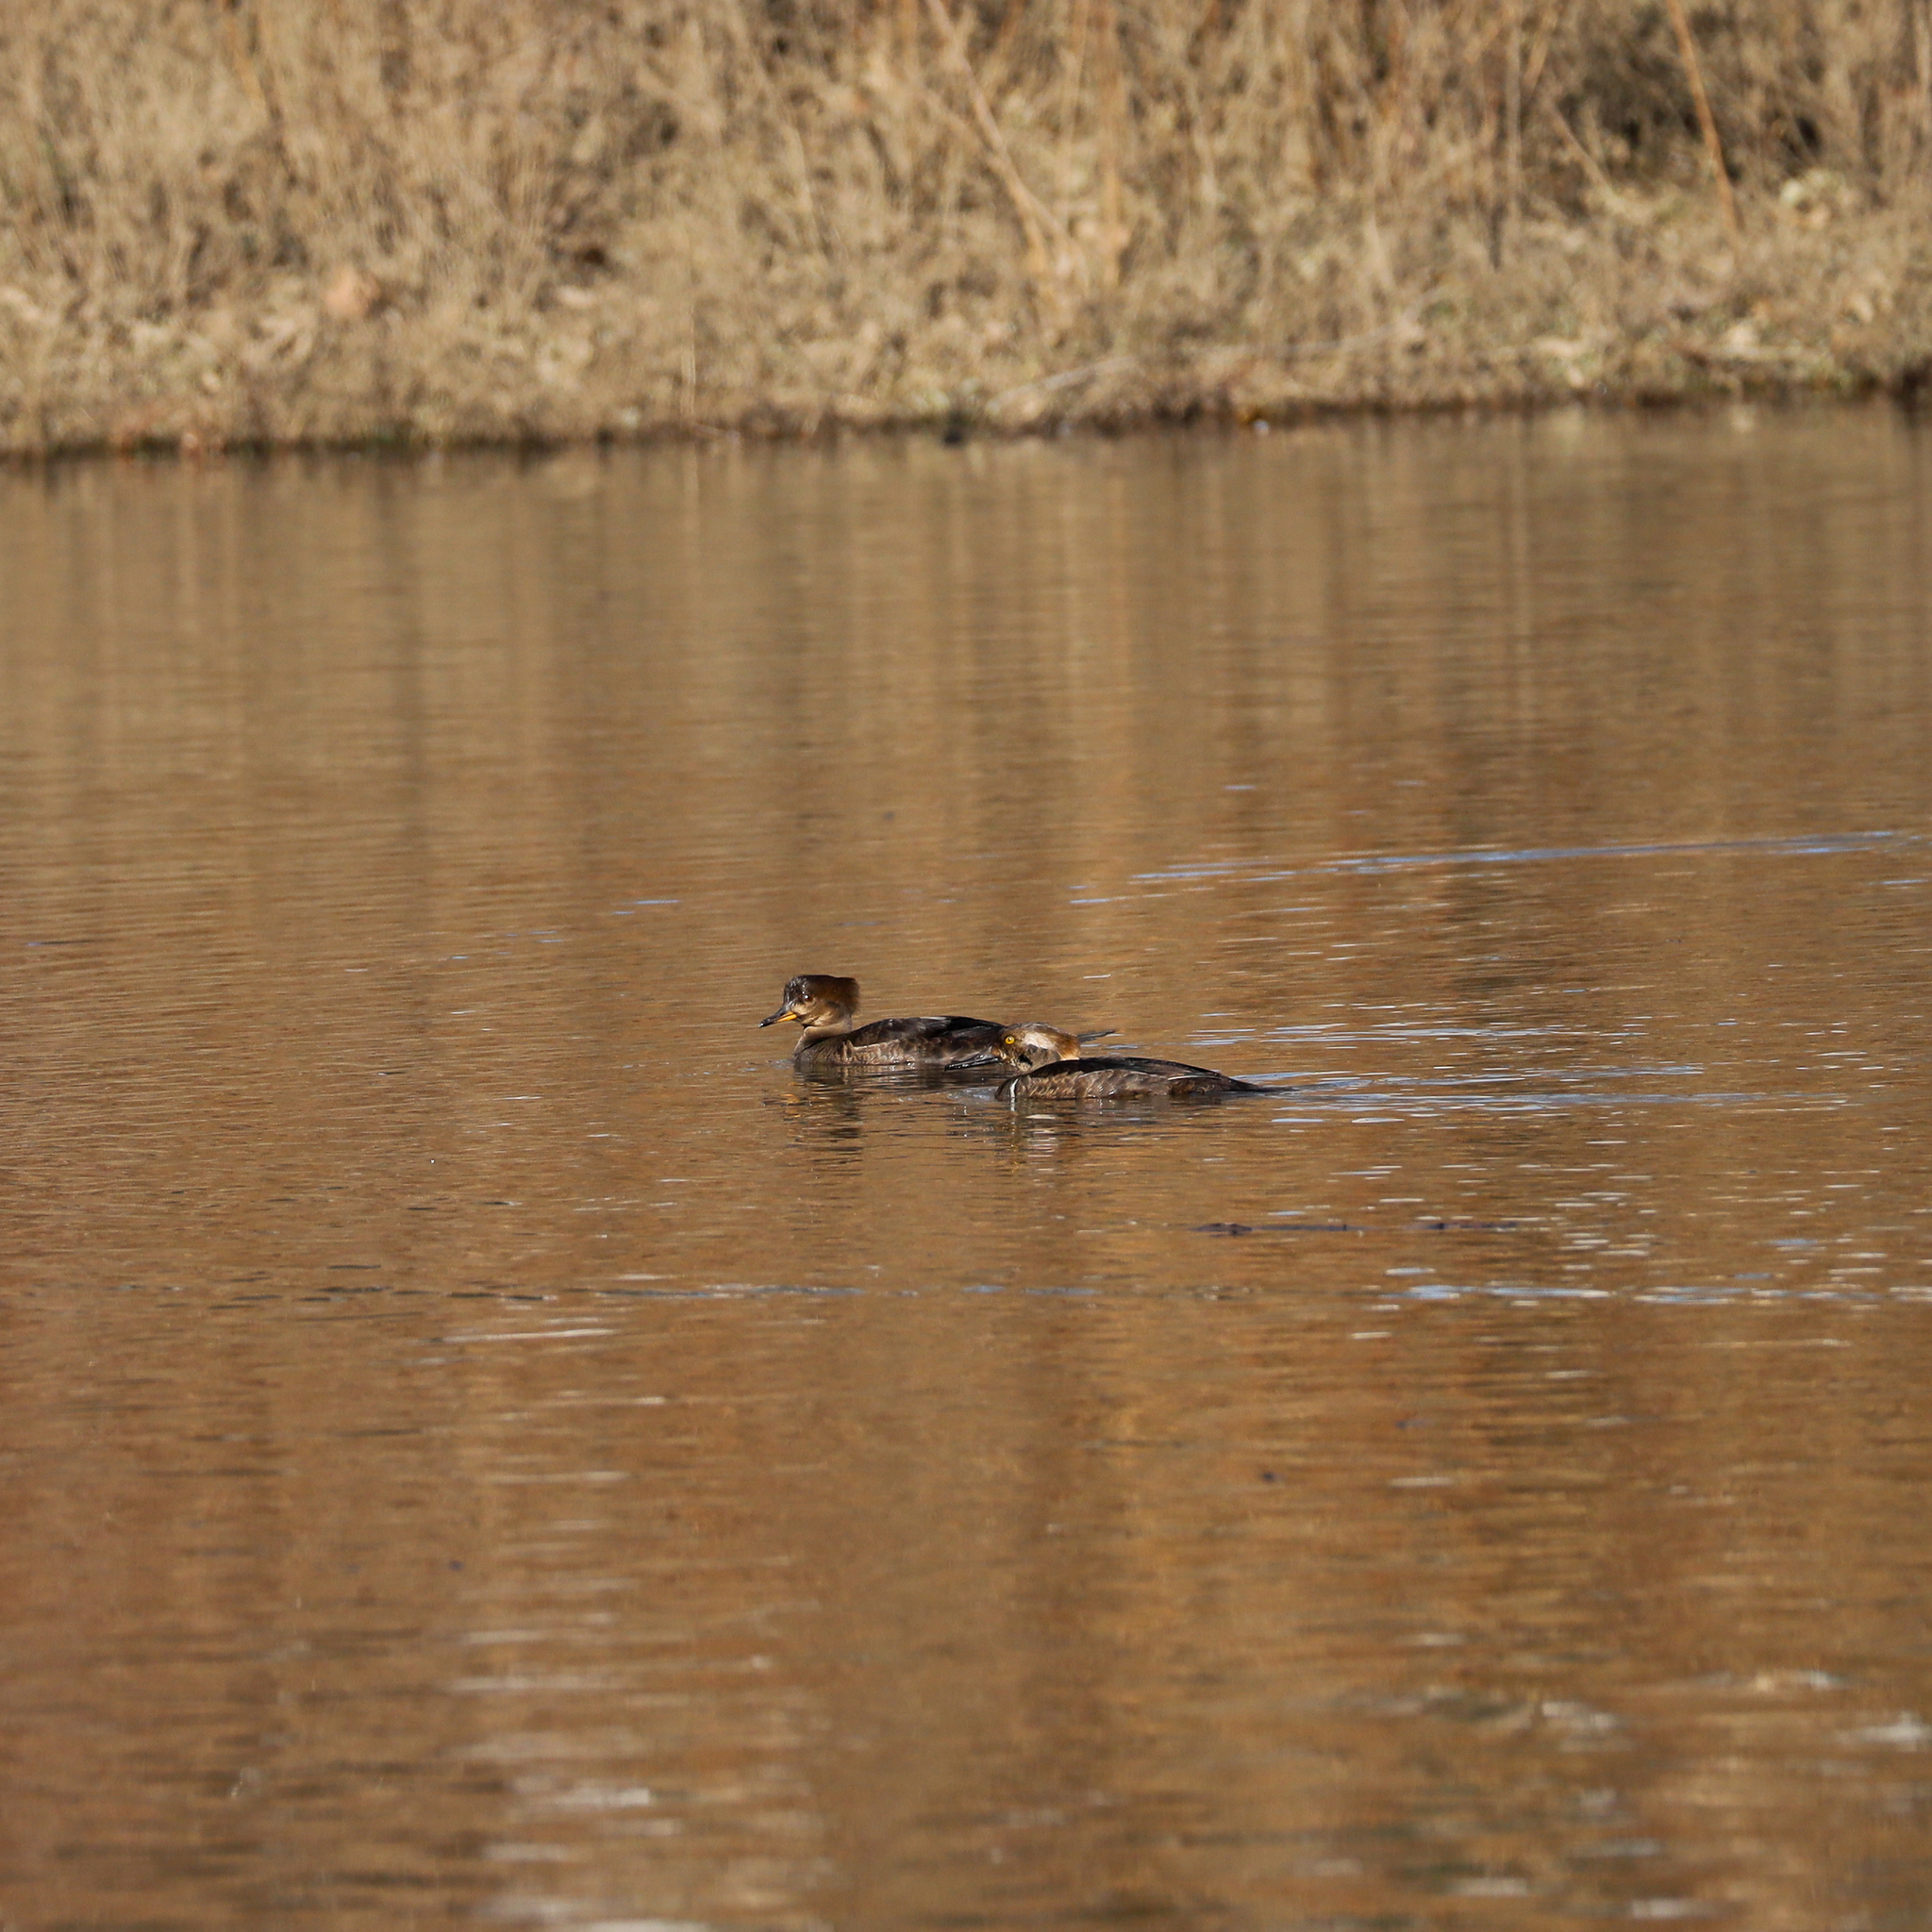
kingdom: Animalia
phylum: Chordata
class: Aves
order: Anseriformes
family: Anatidae
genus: Lophodytes
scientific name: Lophodytes cucullatus
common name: Hooded merganser
